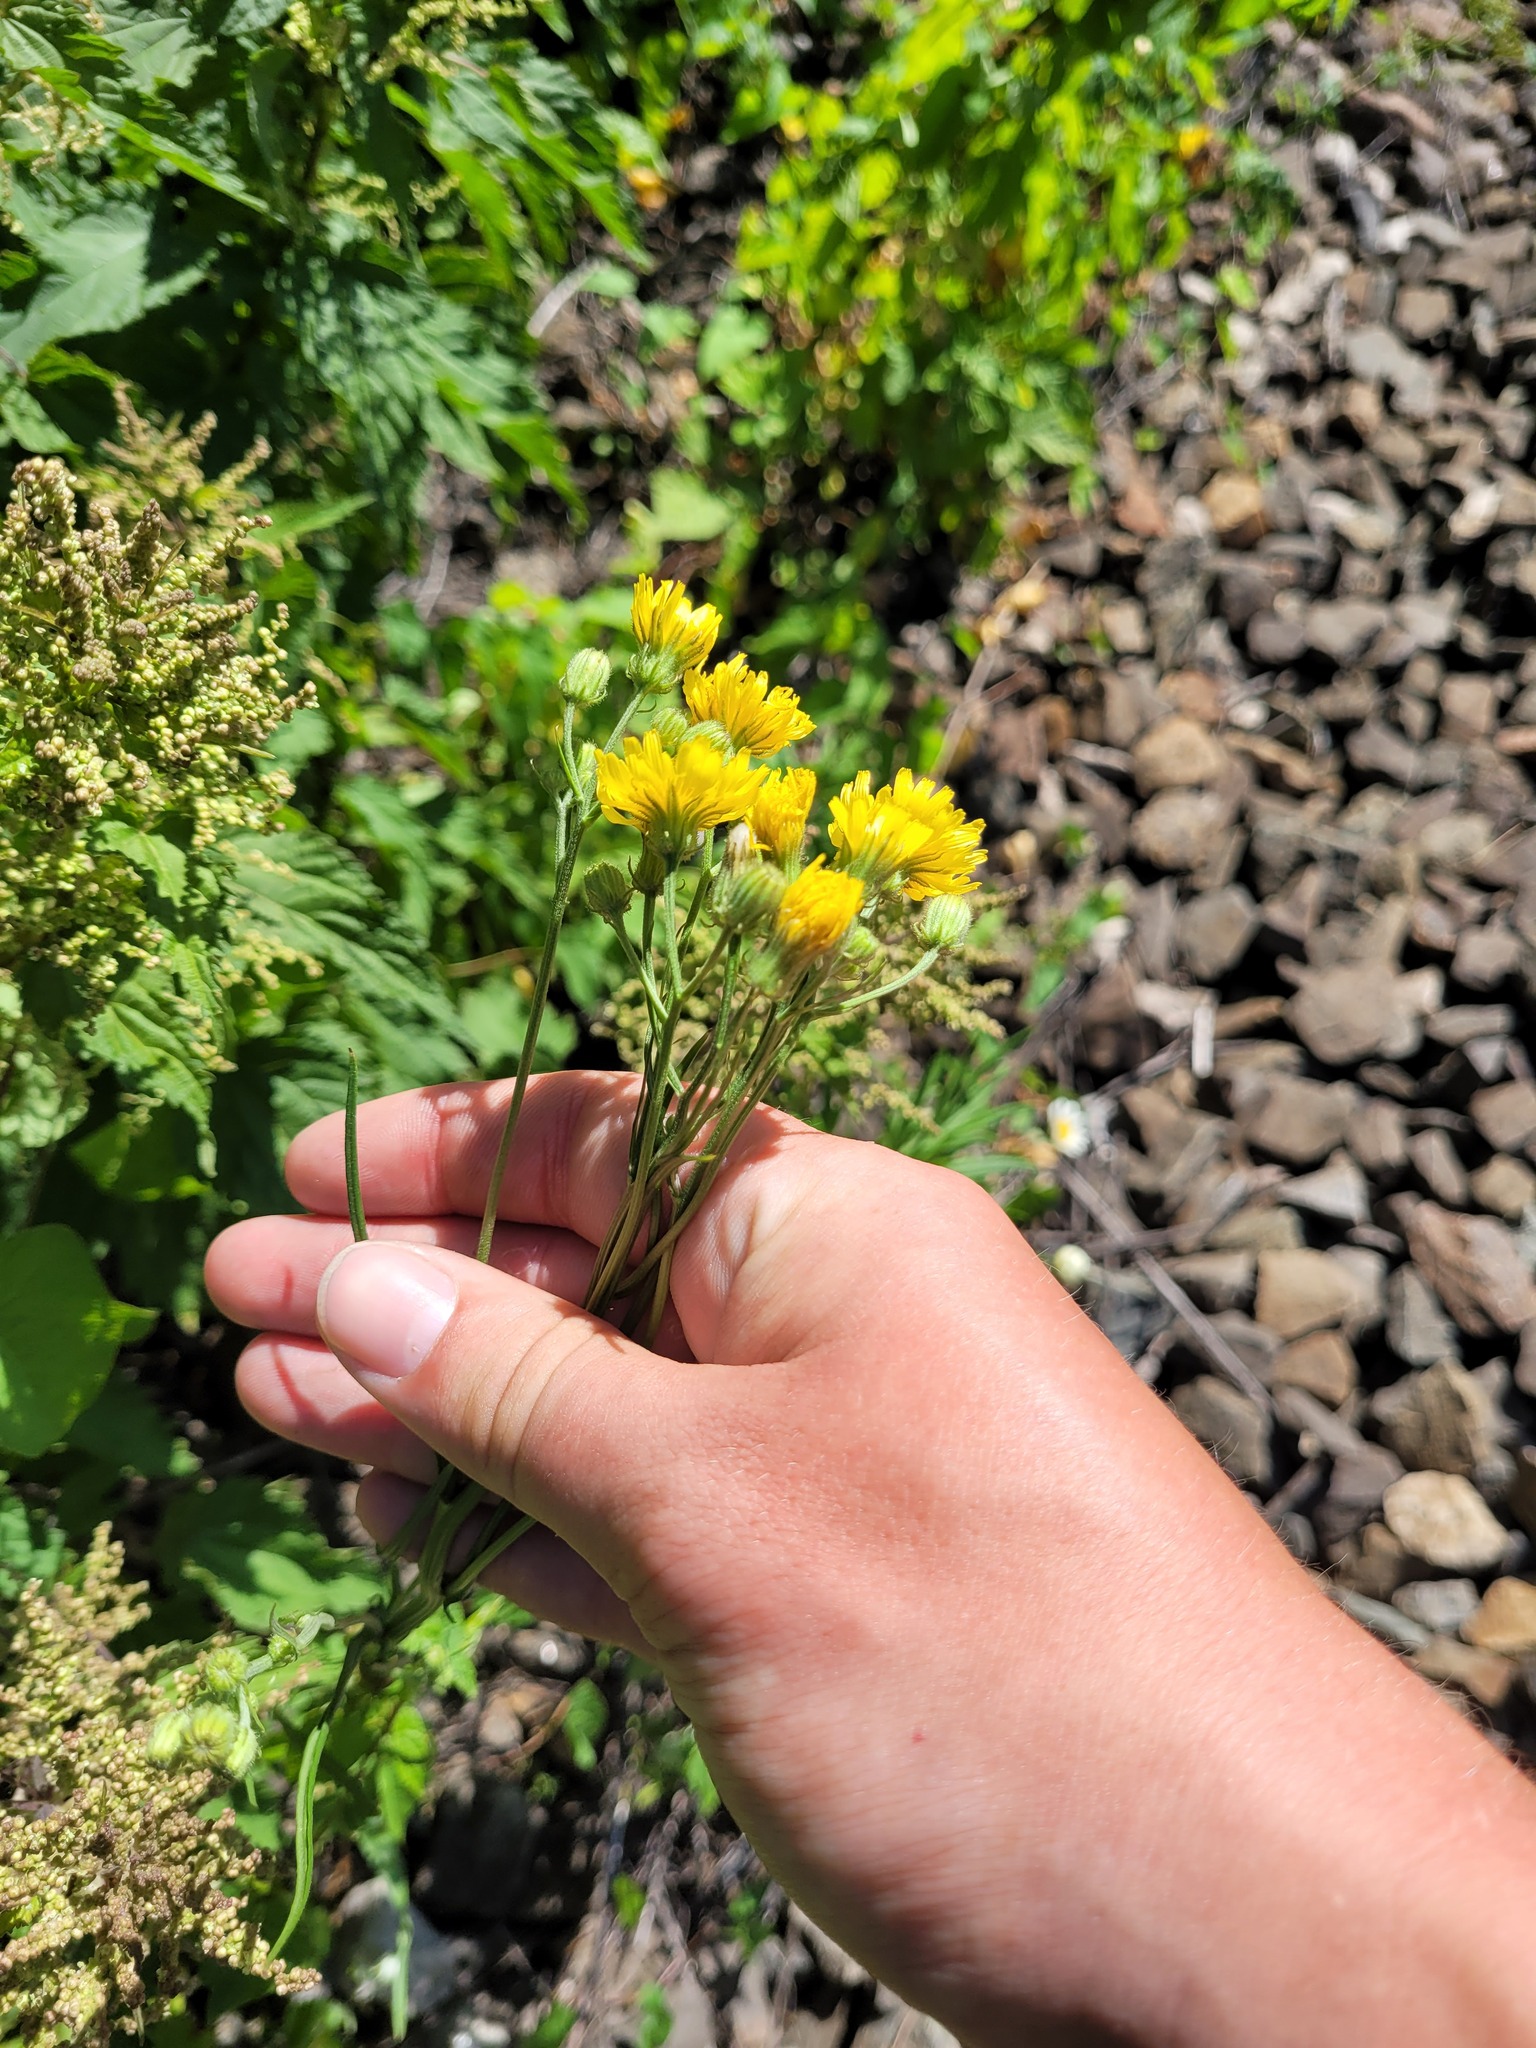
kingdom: Plantae
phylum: Tracheophyta
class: Magnoliopsida
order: Asterales
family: Asteraceae
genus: Crepis
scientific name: Crepis tectorum
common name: Narrow-leaved hawk's-beard
